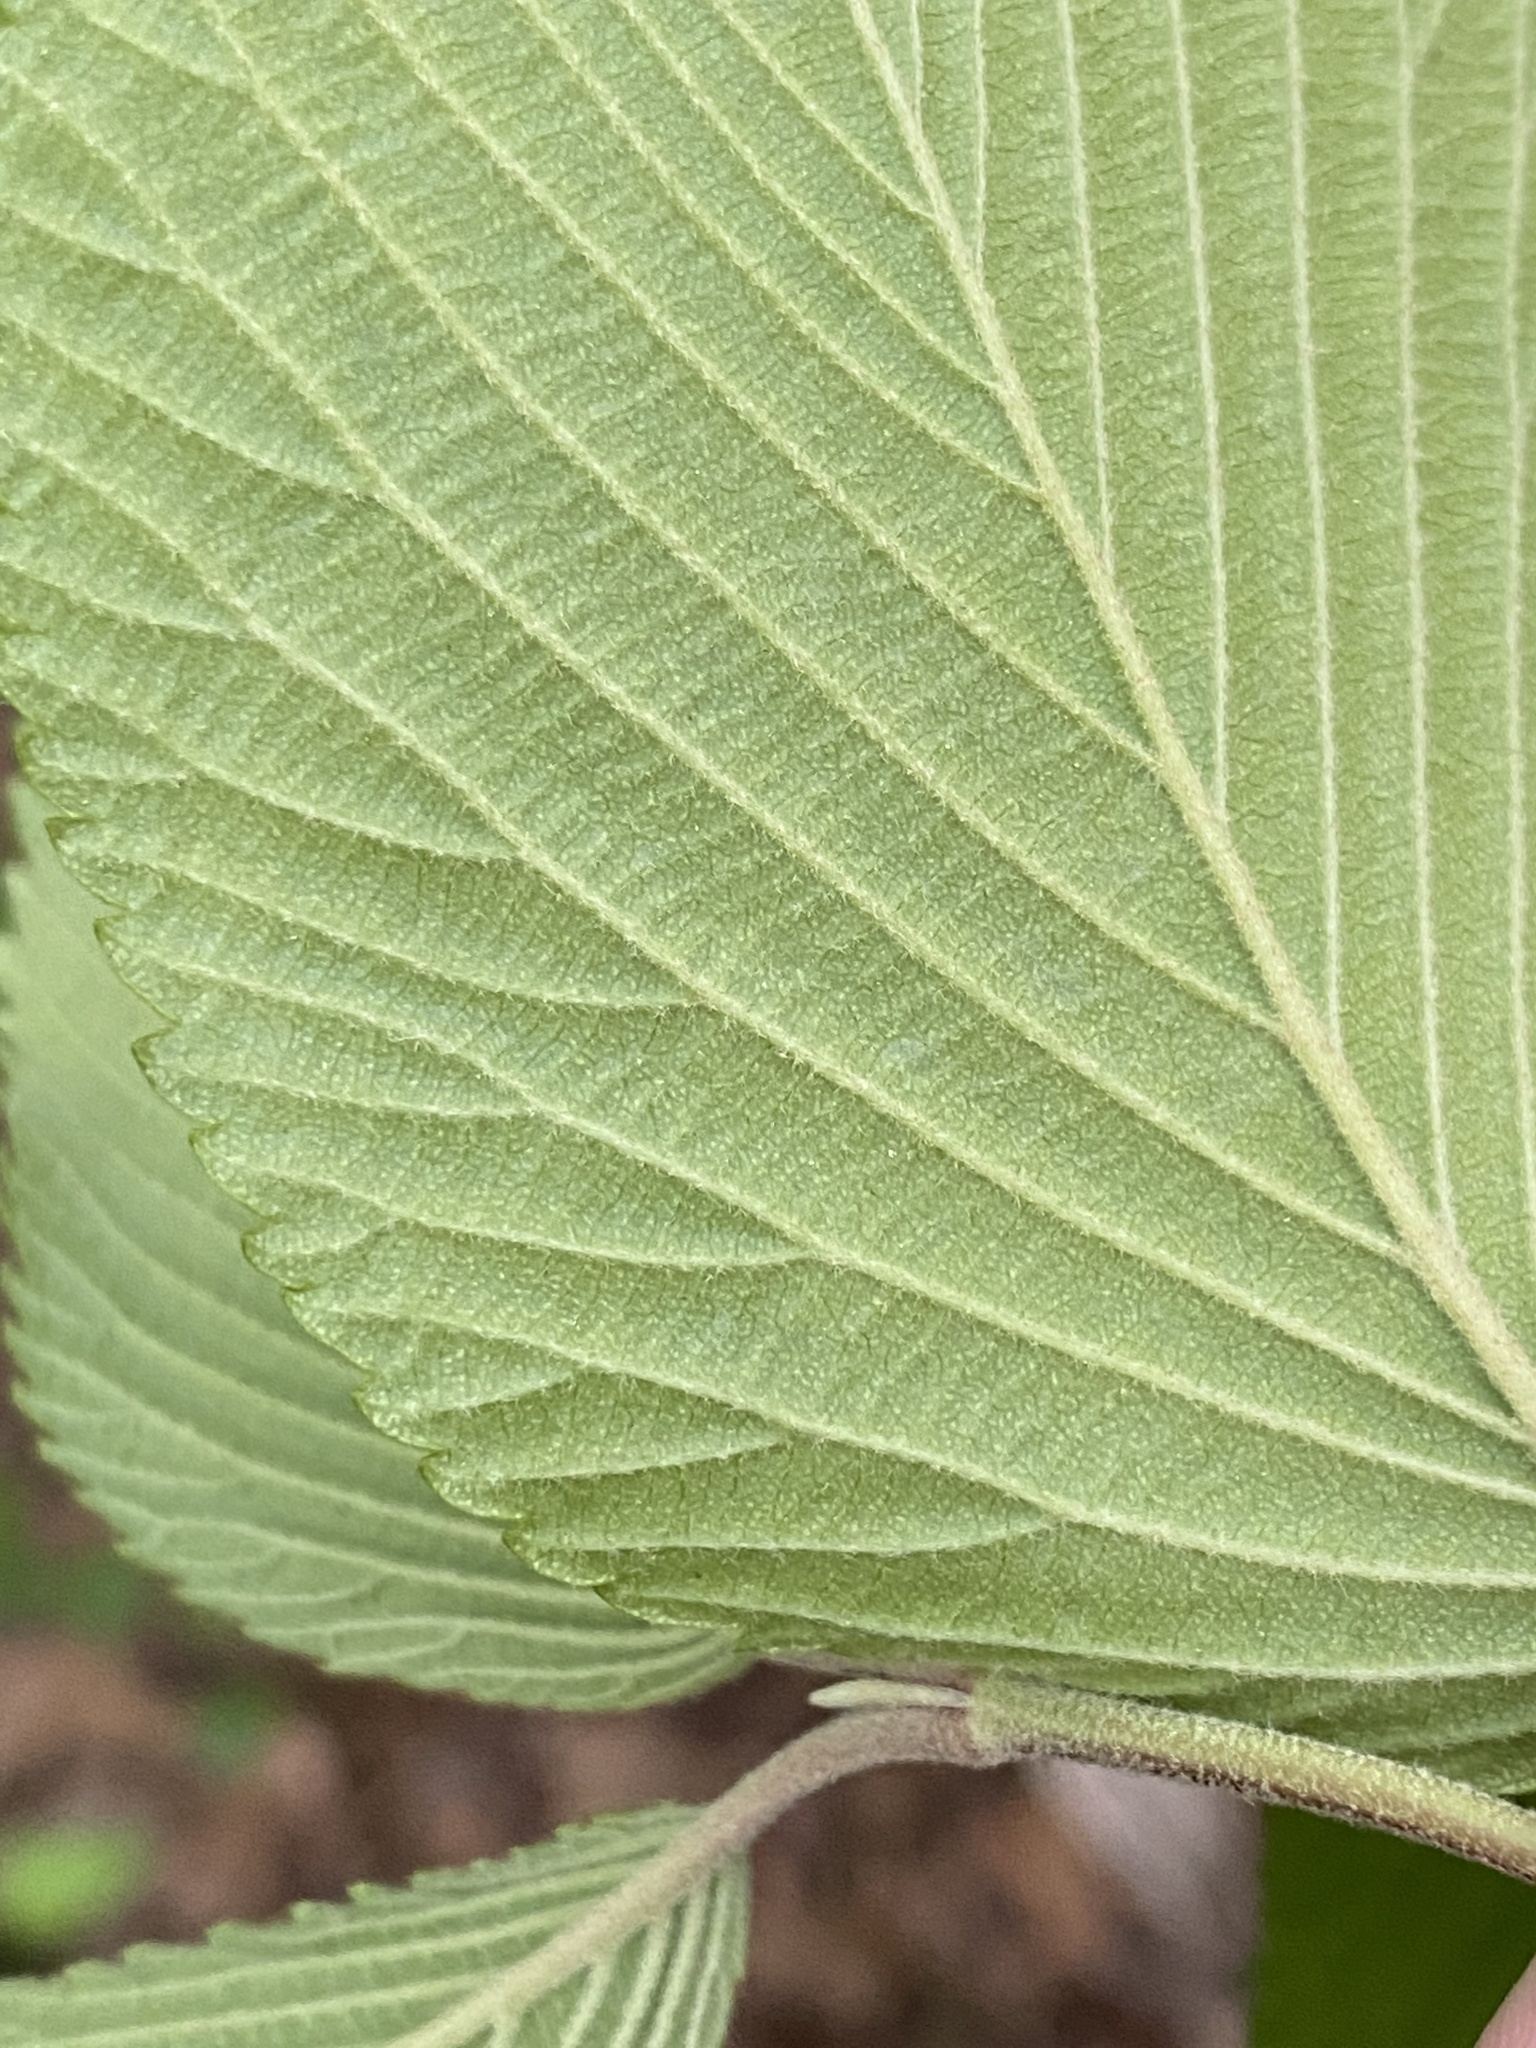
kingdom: Plantae
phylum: Tracheophyta
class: Magnoliopsida
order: Dipsacales
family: Viburnaceae
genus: Viburnum
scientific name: Viburnum plicatum
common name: Japanese snowball
